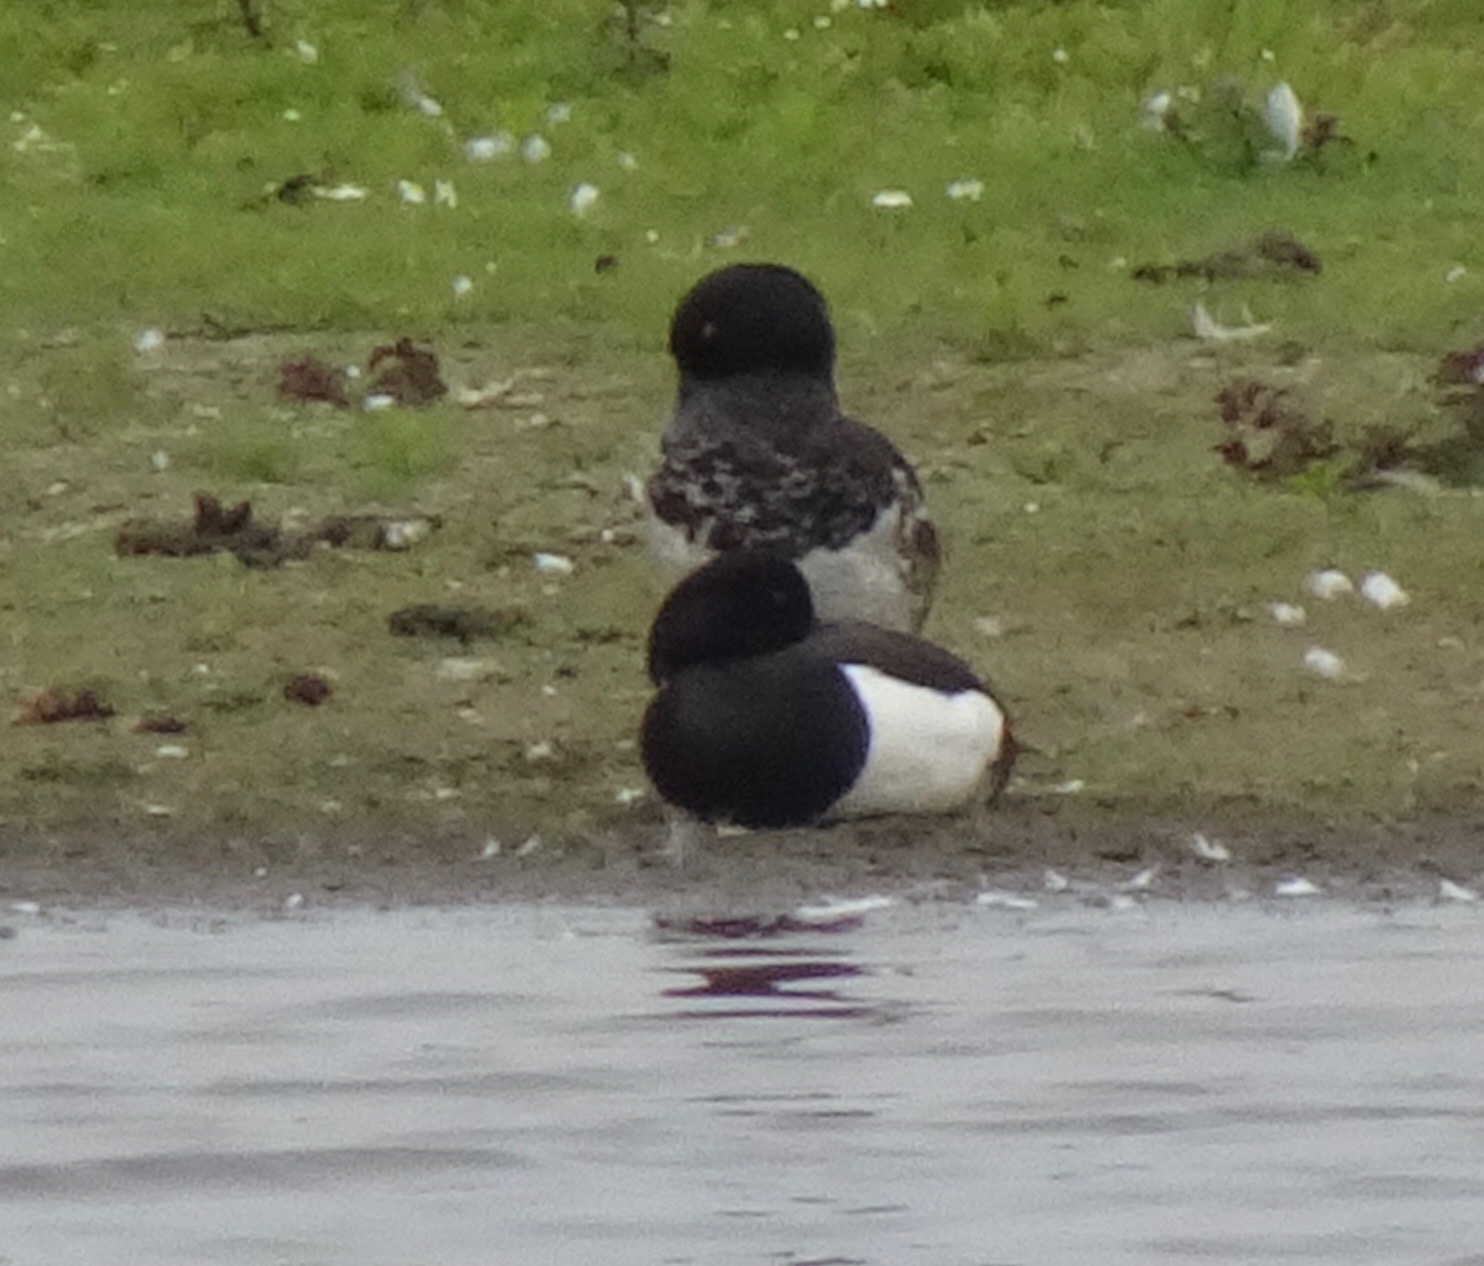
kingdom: Animalia
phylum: Chordata
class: Aves
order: Anseriformes
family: Anatidae
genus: Aythya
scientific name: Aythya fuligula
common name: Tufted duck
